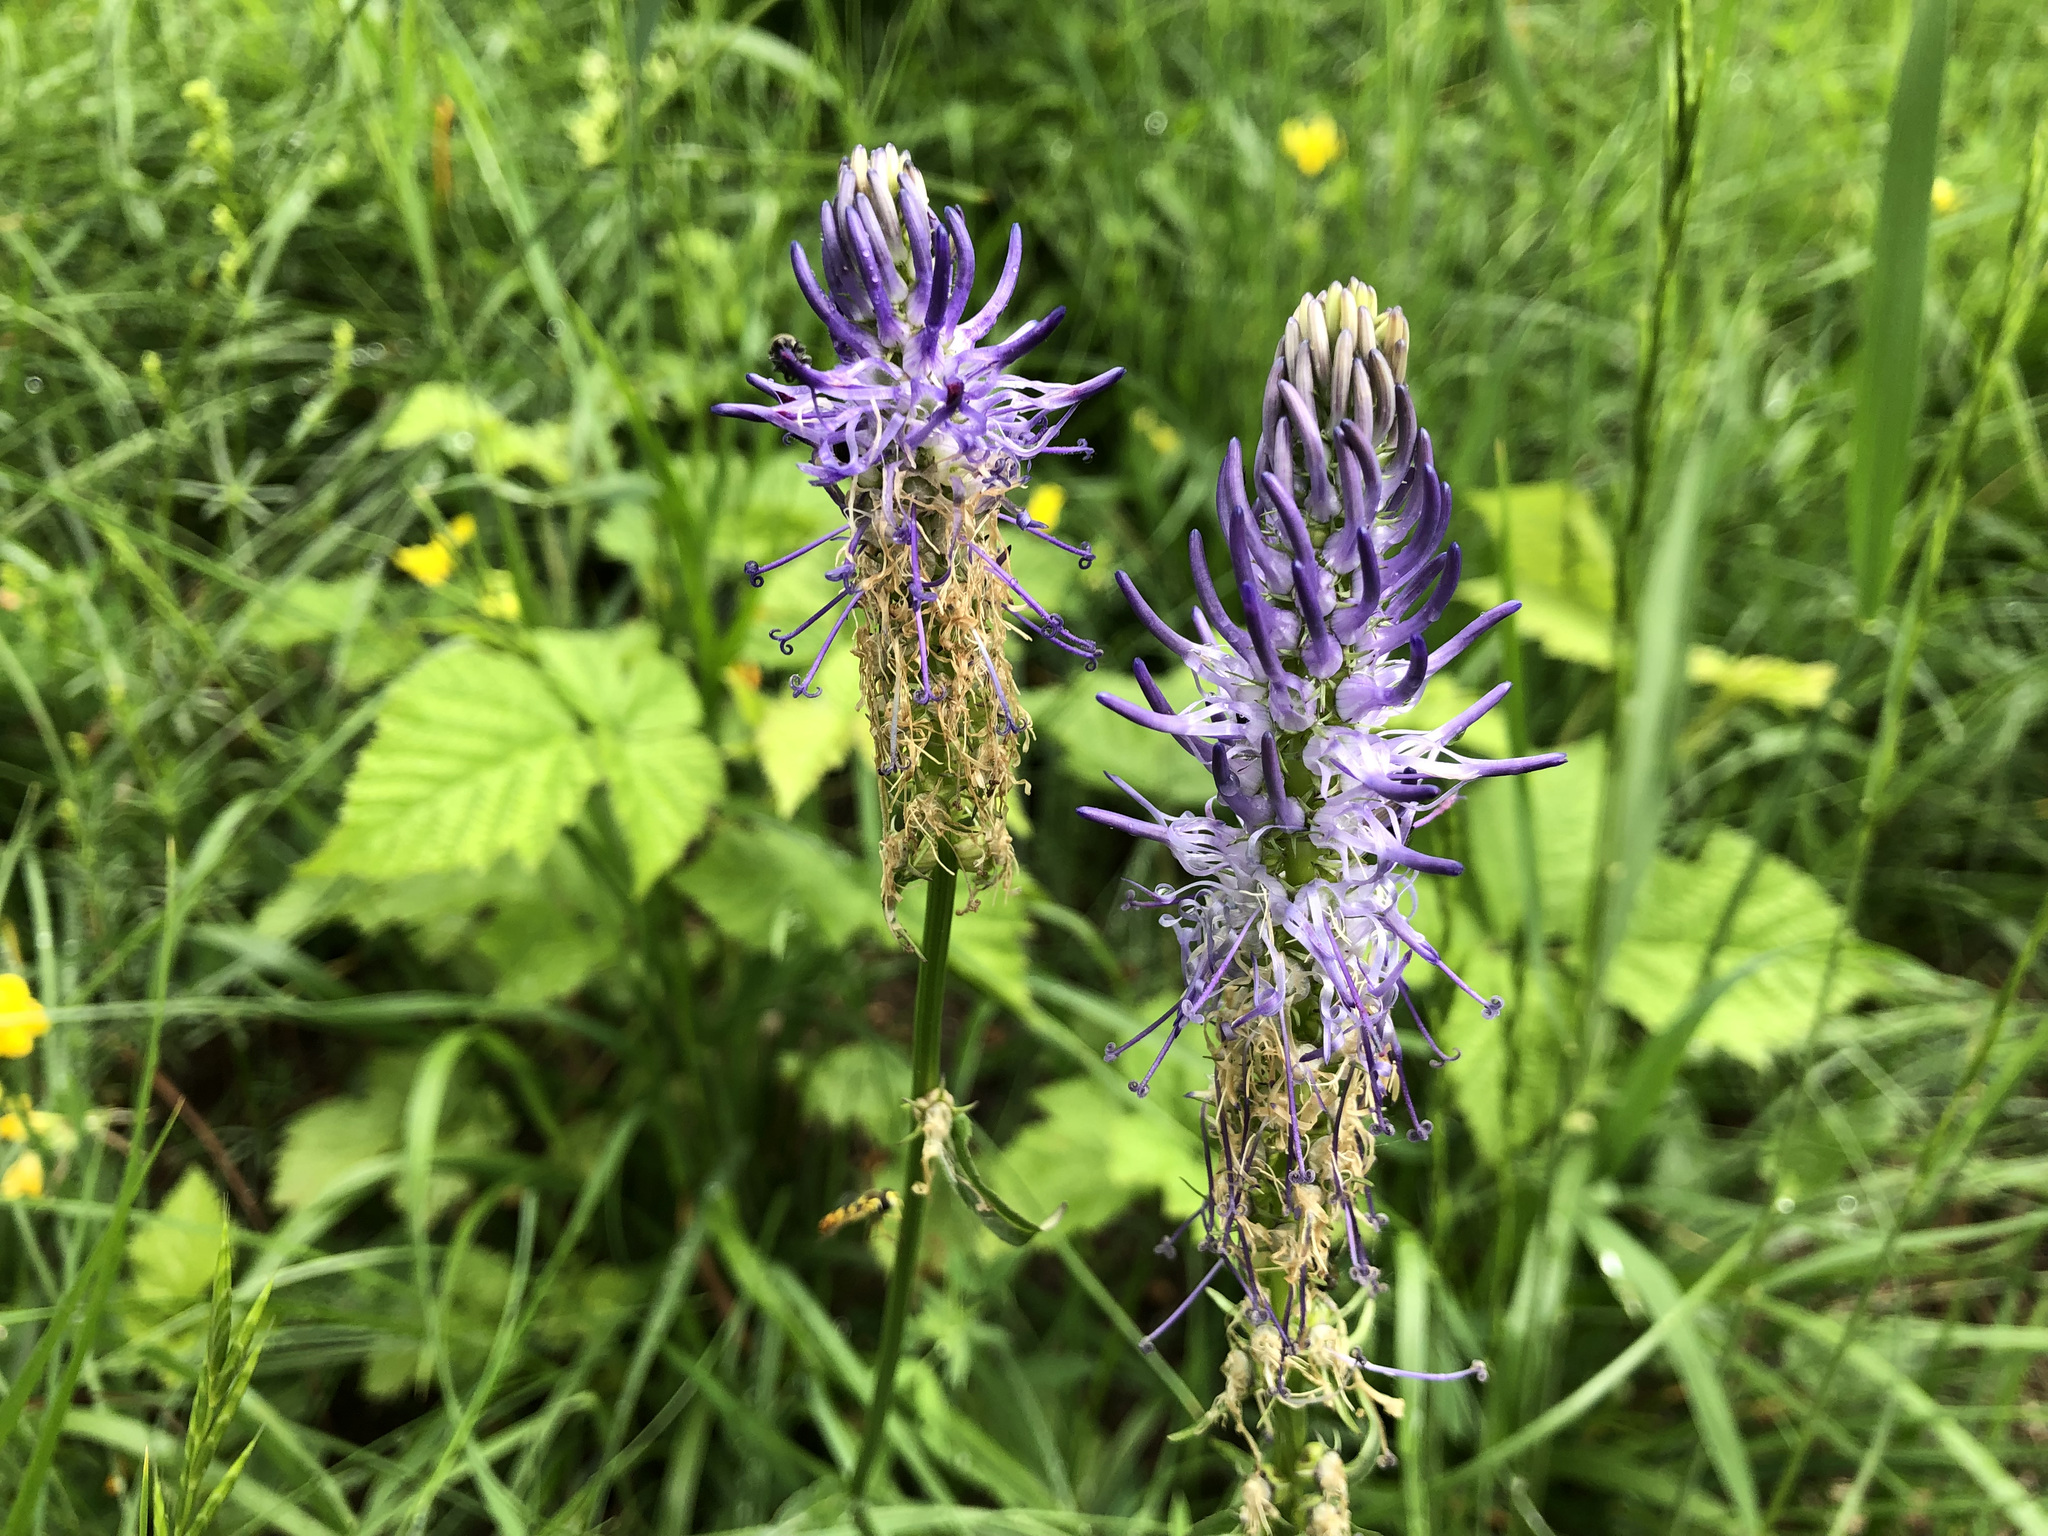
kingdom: Plantae
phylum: Tracheophyta
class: Magnoliopsida
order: Asterales
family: Campanulaceae
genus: Phyteuma
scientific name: Phyteuma betonicifolium
